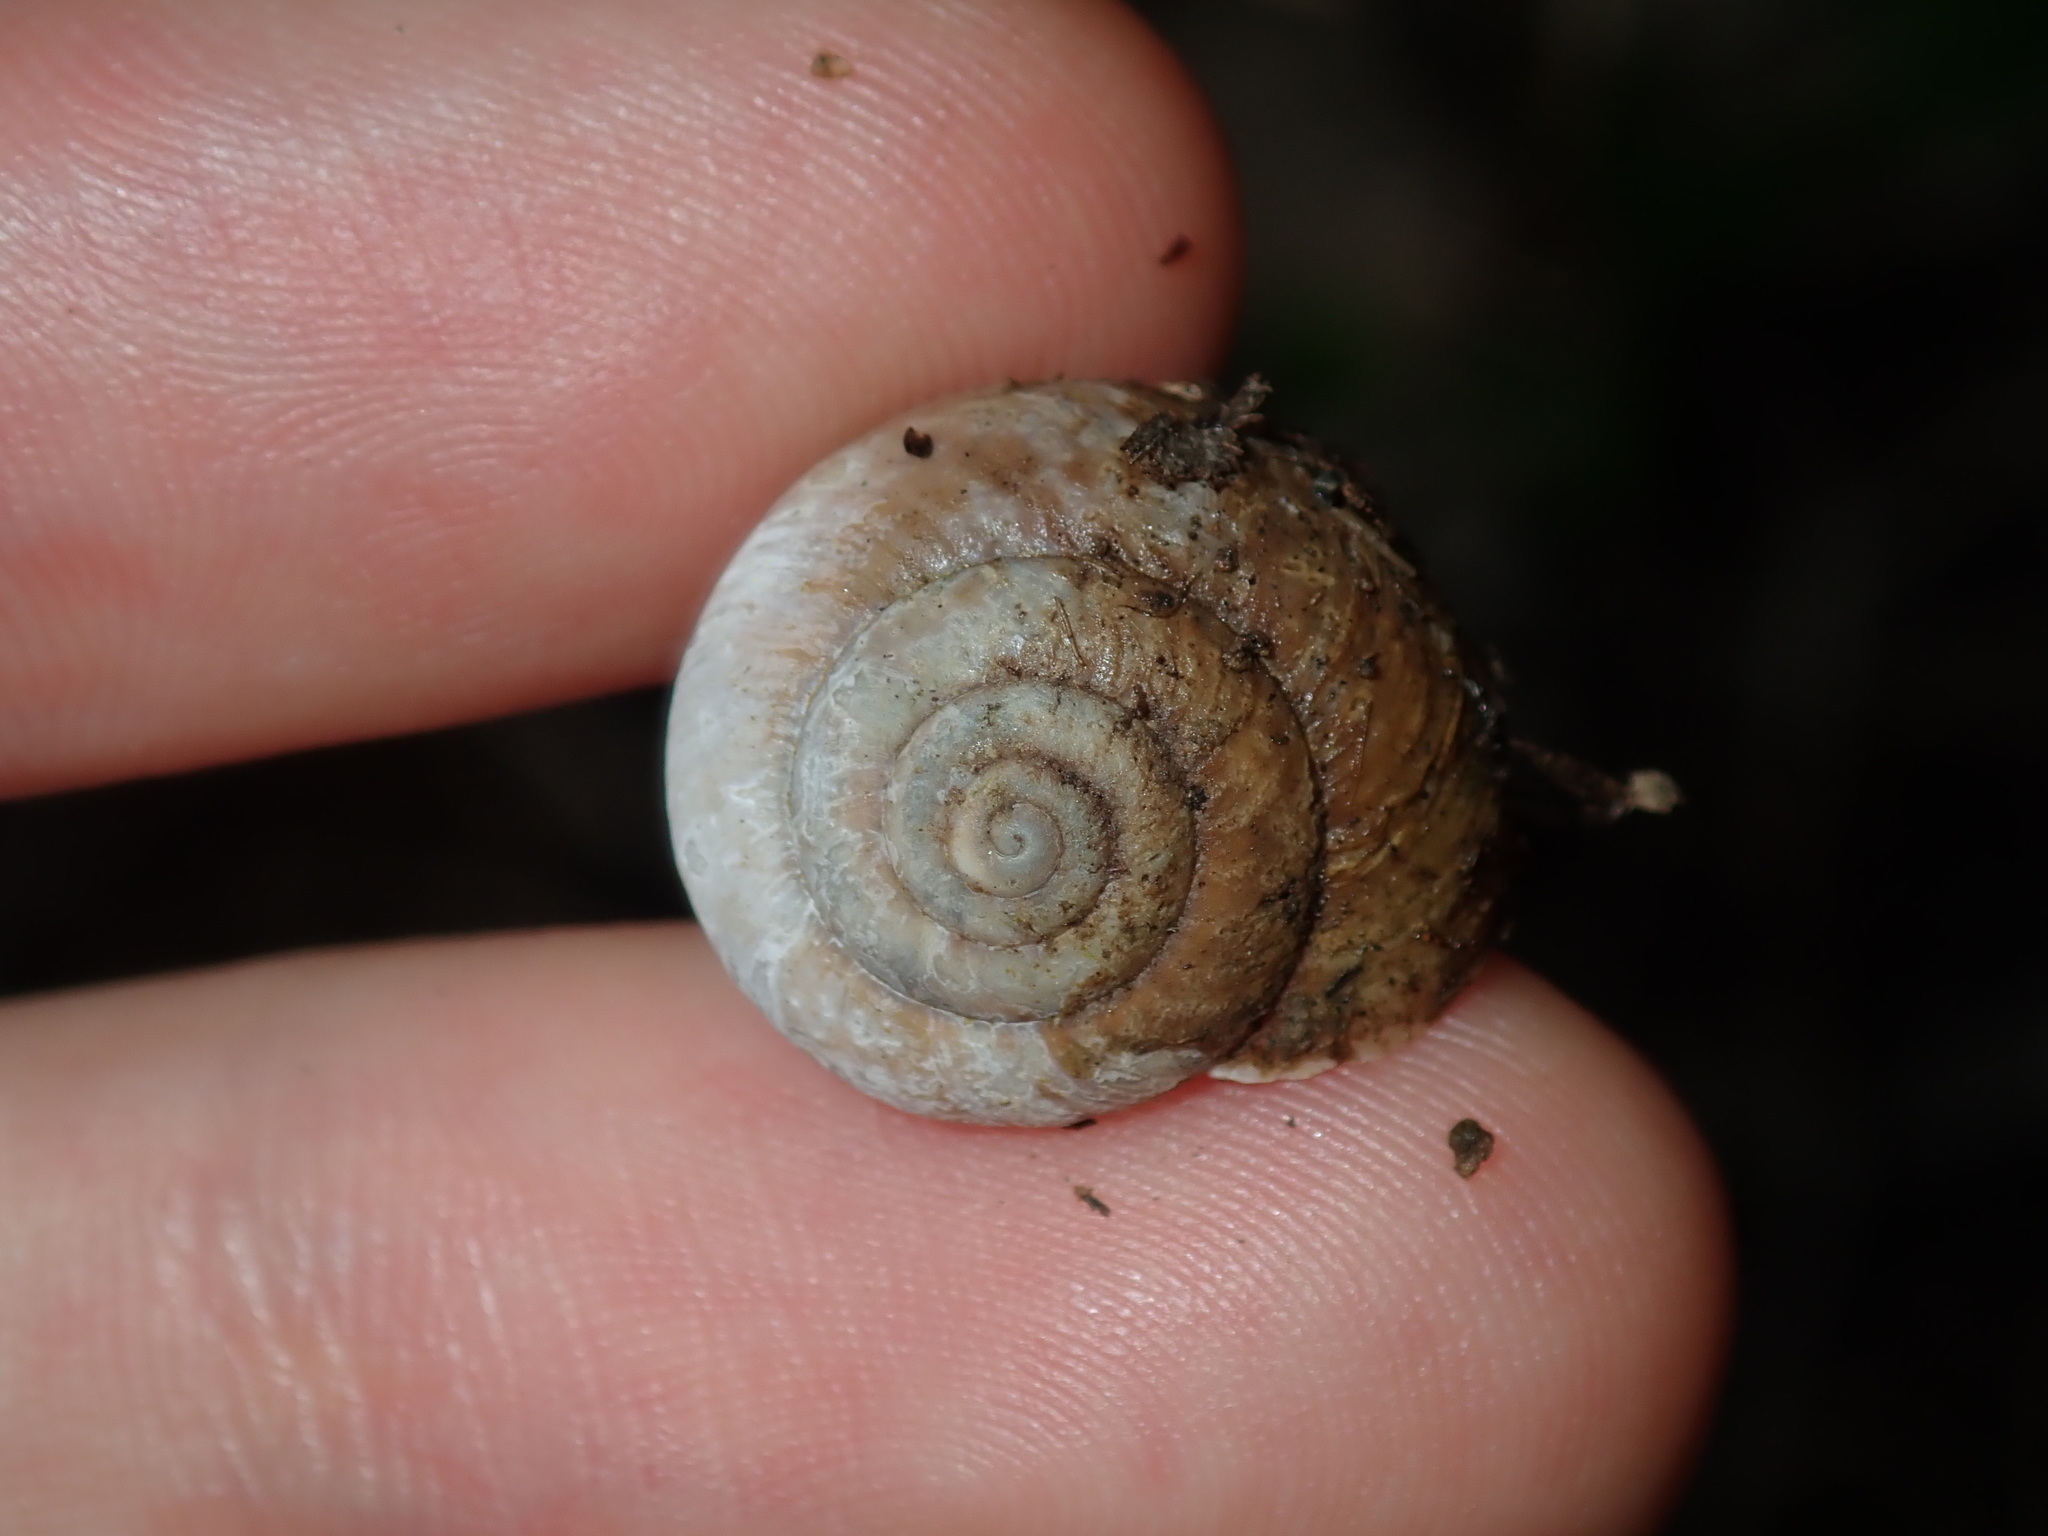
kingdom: Animalia
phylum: Mollusca
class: Gastropoda
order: Stylommatophora
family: Camaenidae
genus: Sauroconcha
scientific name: Sauroconcha sheai
